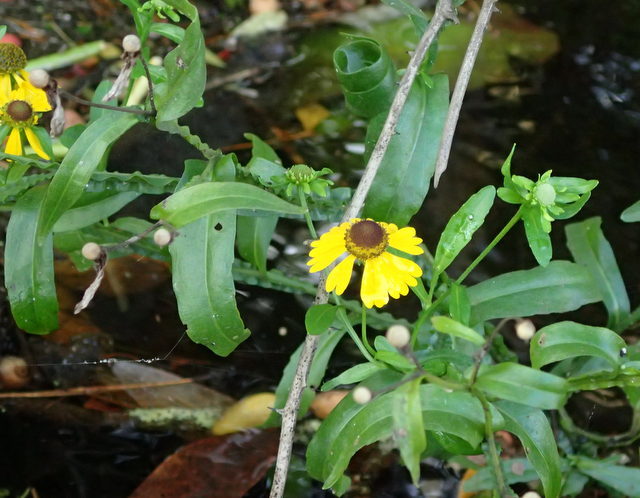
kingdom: Plantae
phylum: Tracheophyta
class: Magnoliopsida
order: Asterales
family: Asteraceae
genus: Helenium
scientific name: Helenium flexuosum
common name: Naked-flowered sneezeweed
